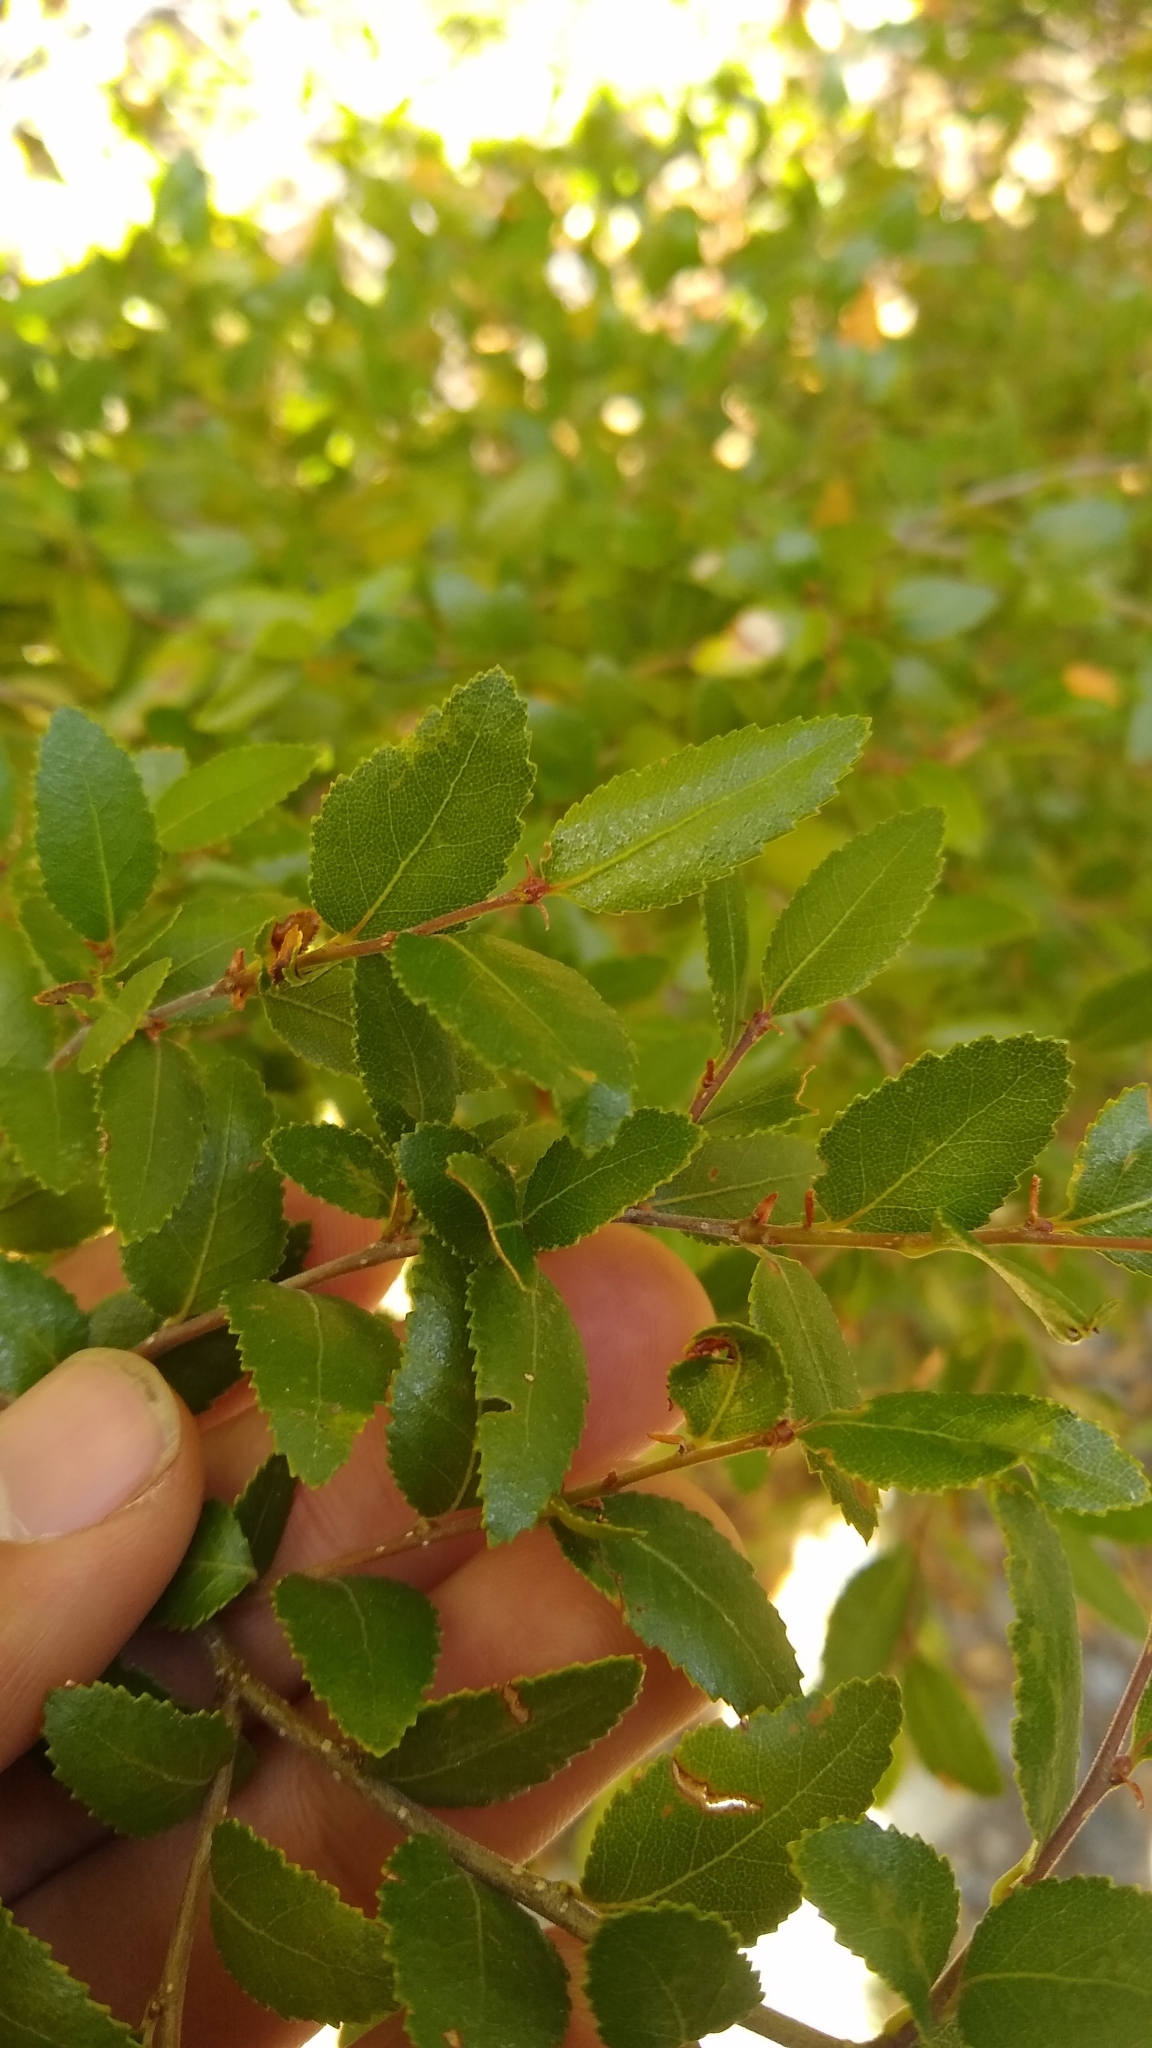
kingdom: Plantae
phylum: Tracheophyta
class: Magnoliopsida
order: Fagales
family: Nothofagaceae
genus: Nothofagus
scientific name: Nothofagus dombeyi
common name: Coigue
